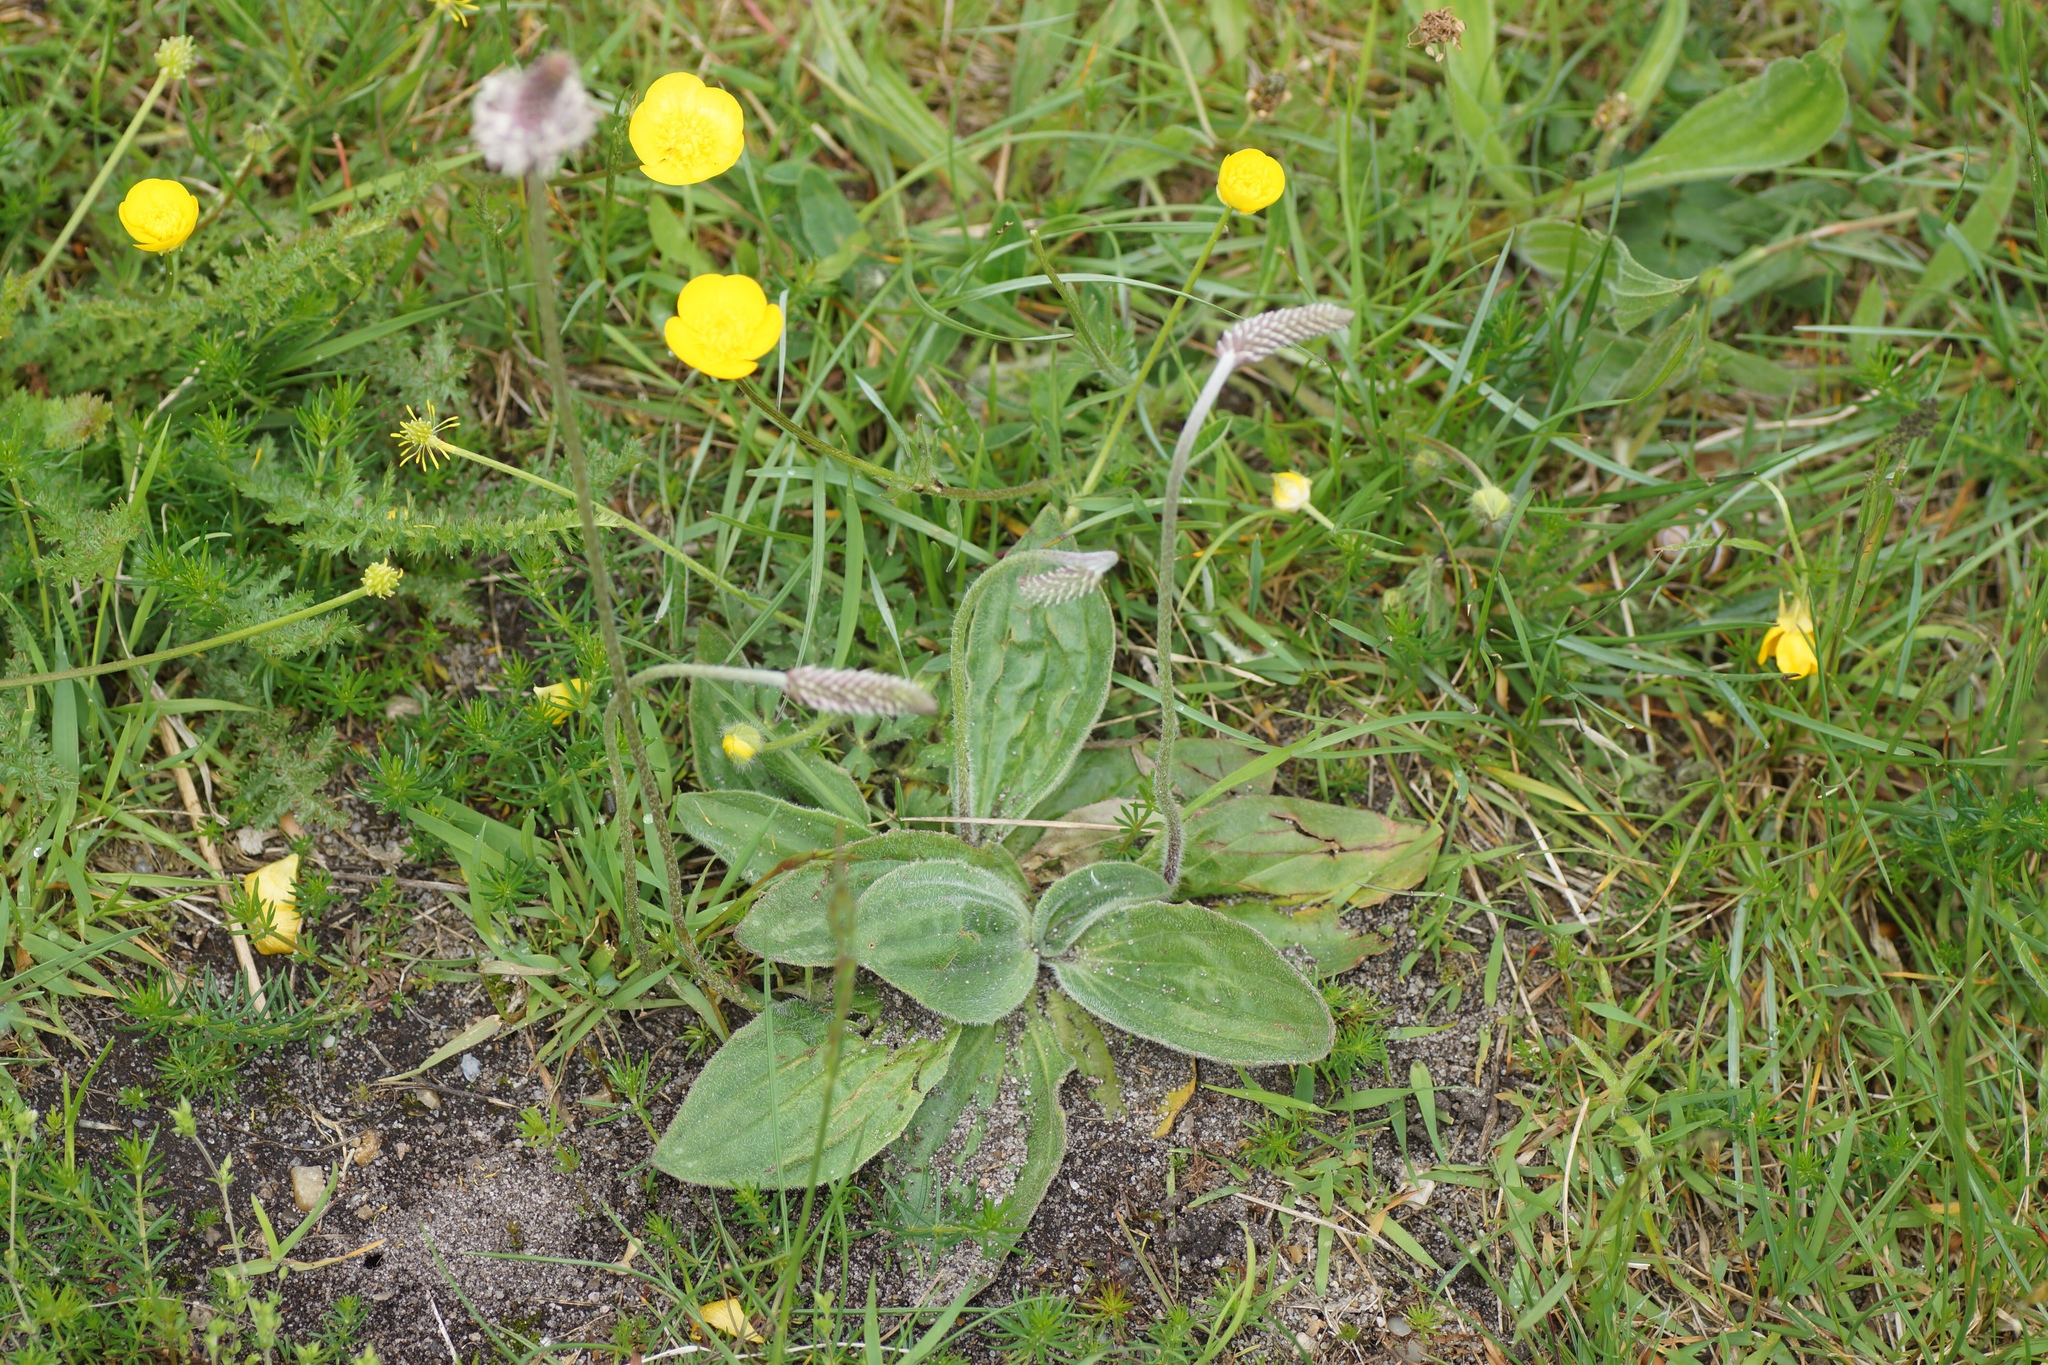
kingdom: Plantae
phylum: Tracheophyta
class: Magnoliopsida
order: Lamiales
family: Plantaginaceae
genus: Plantago
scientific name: Plantago media
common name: Hoary plantain
